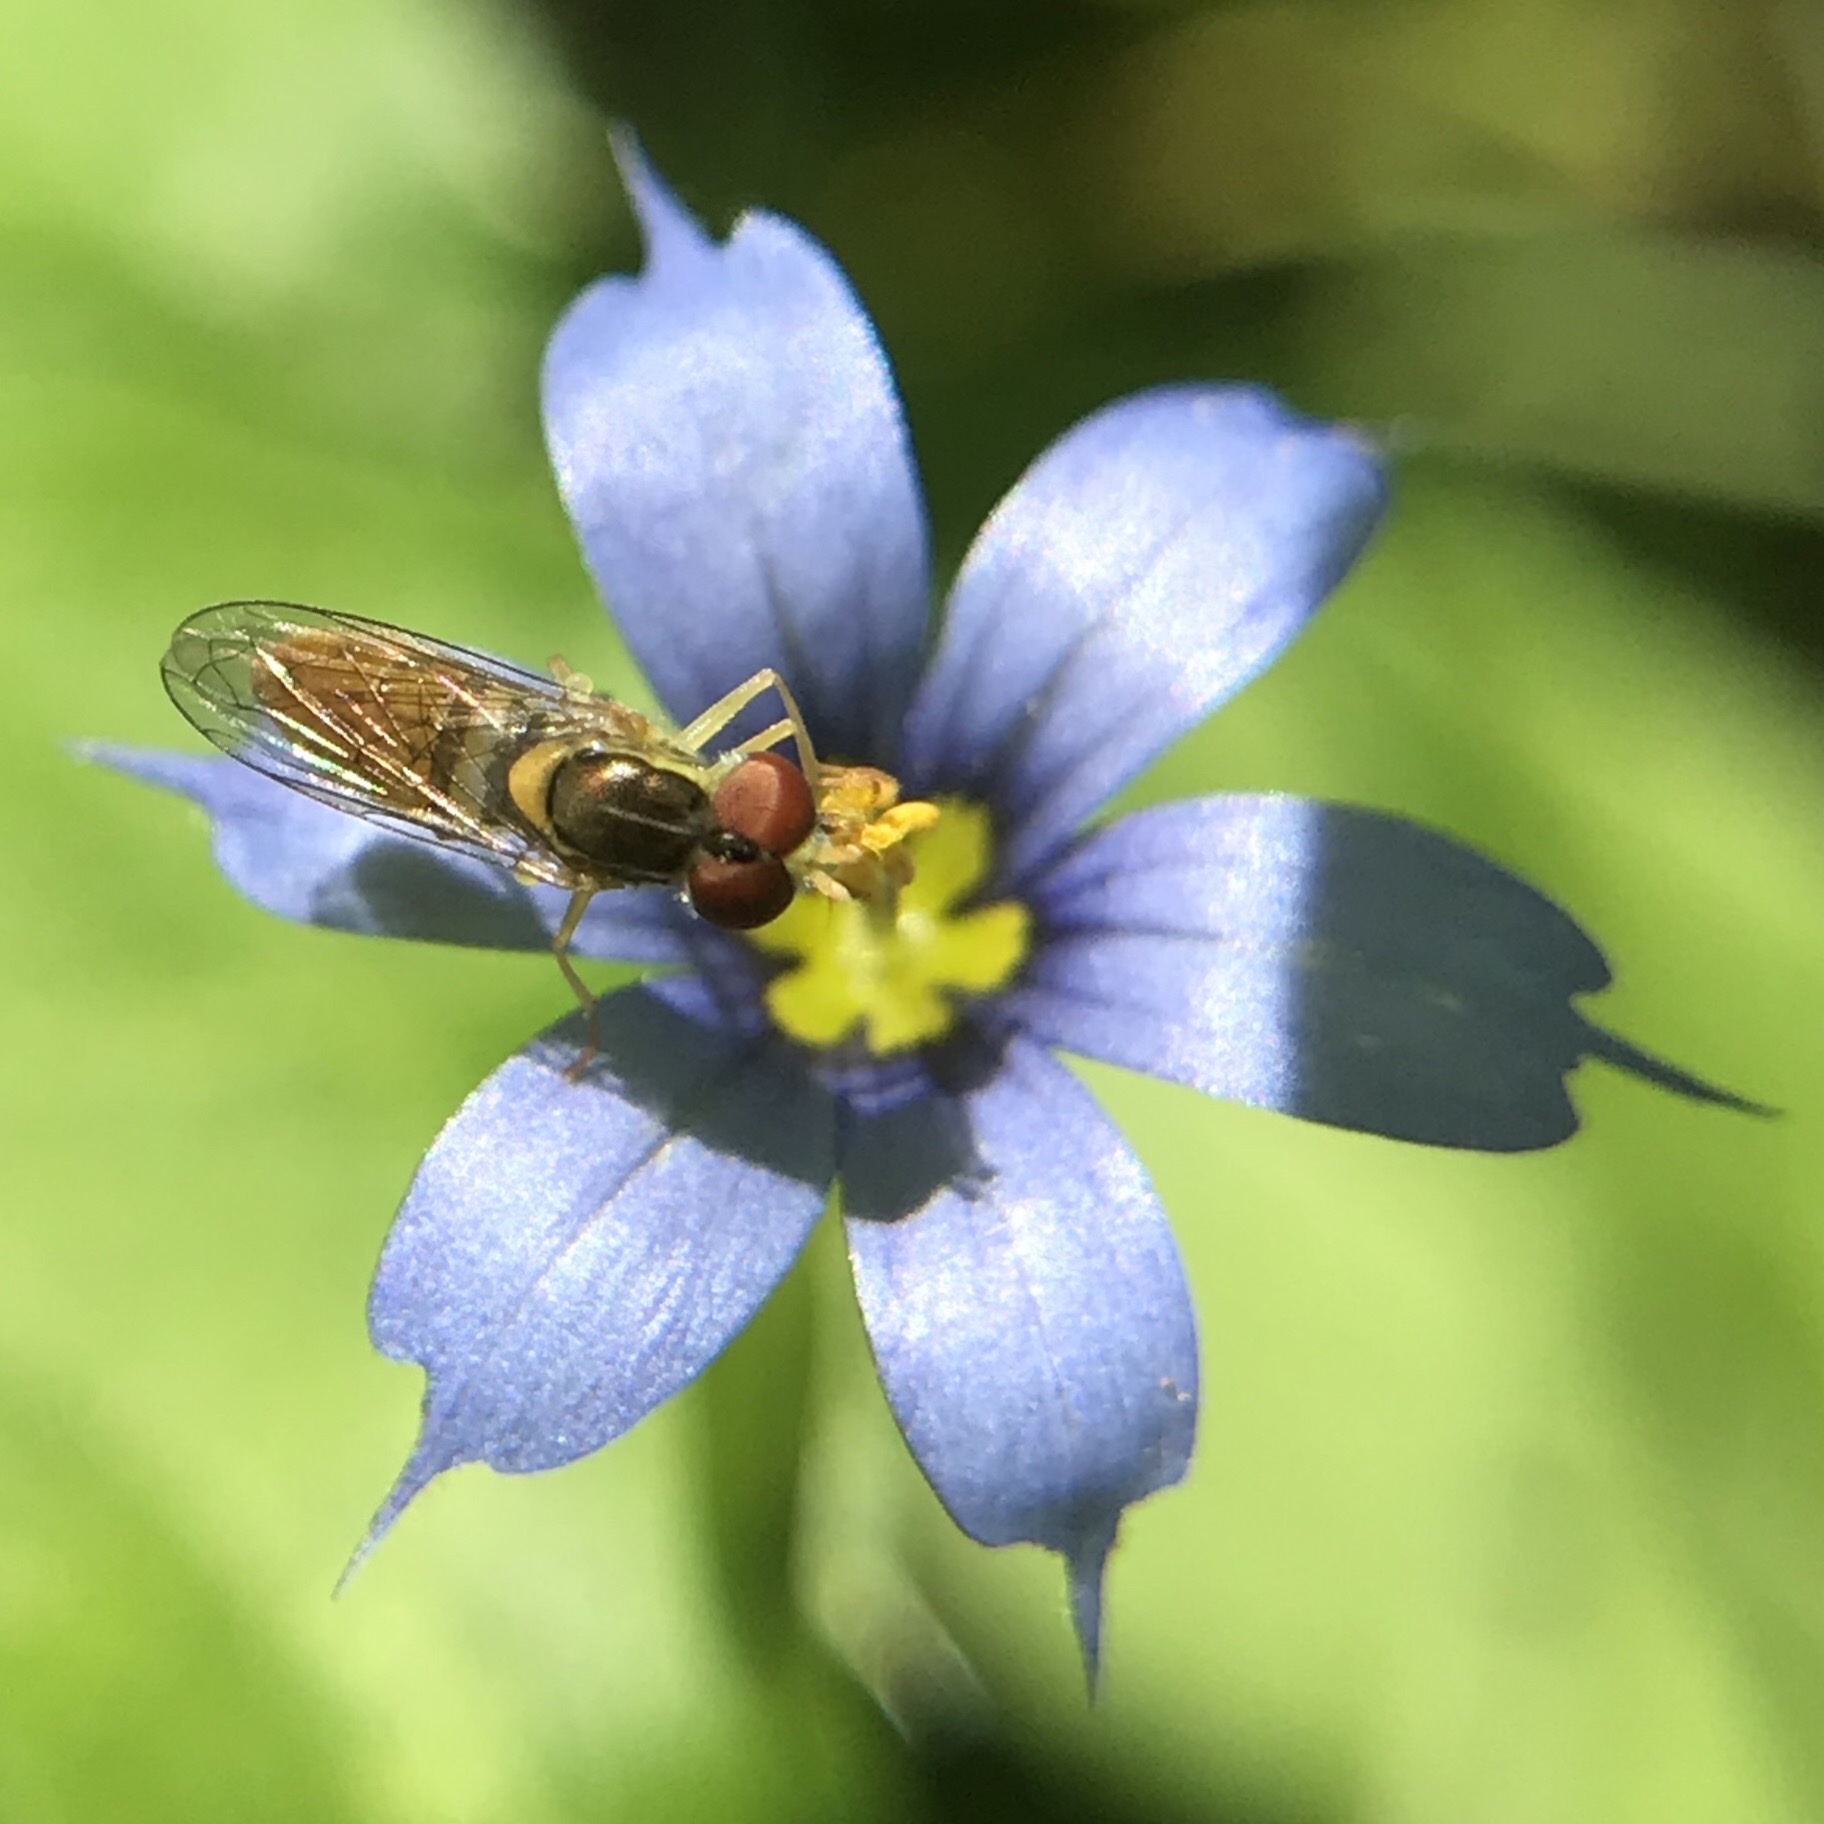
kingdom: Animalia
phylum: Arthropoda
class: Insecta
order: Diptera
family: Syrphidae
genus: Toxomerus
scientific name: Toxomerus marginatus
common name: Syrphid fly
